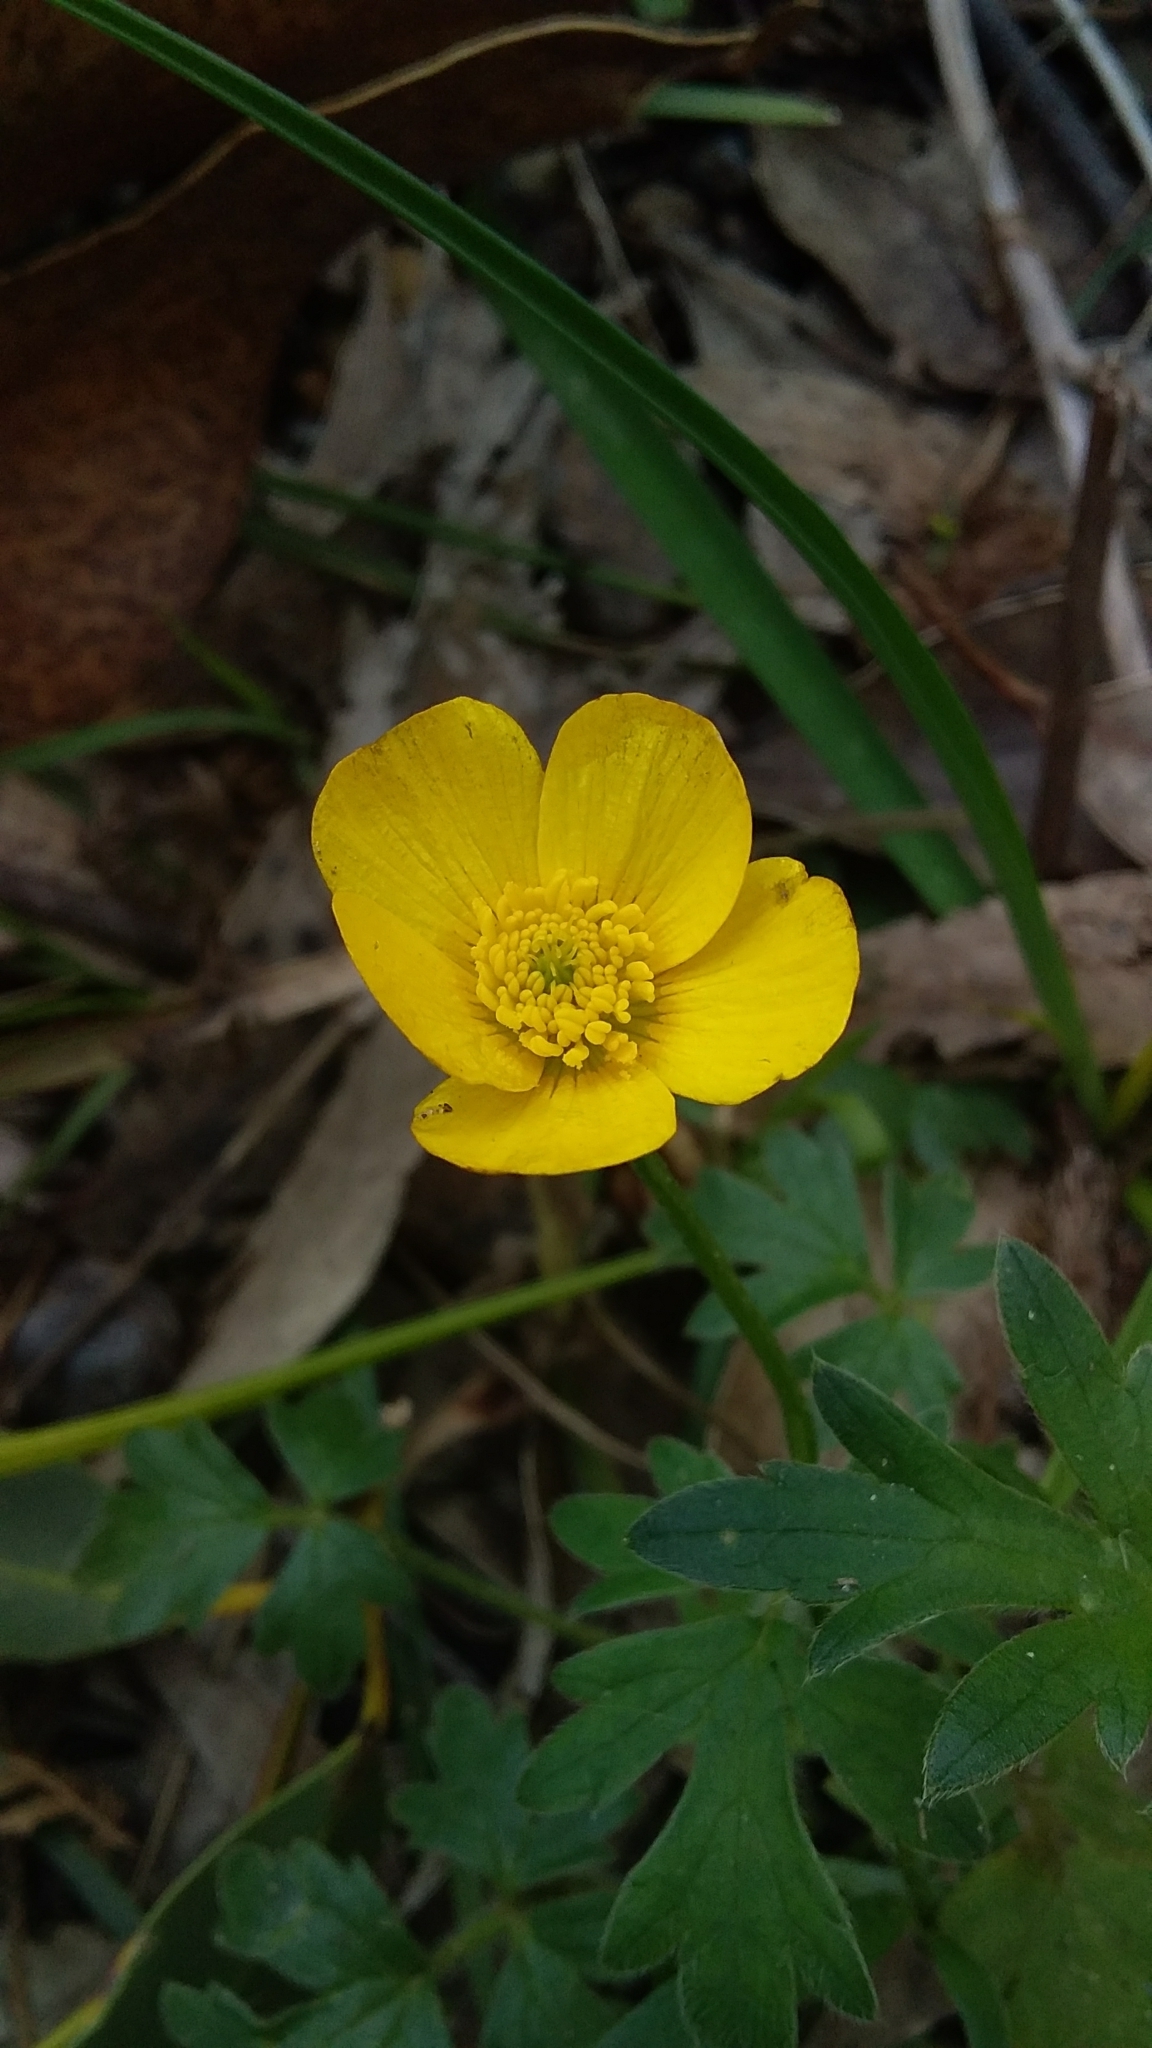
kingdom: Plantae
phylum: Tracheophyta
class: Magnoliopsida
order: Ranunculales
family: Ranunculaceae
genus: Ranunculus
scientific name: Ranunculus lappaceus
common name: Australian buttercup
